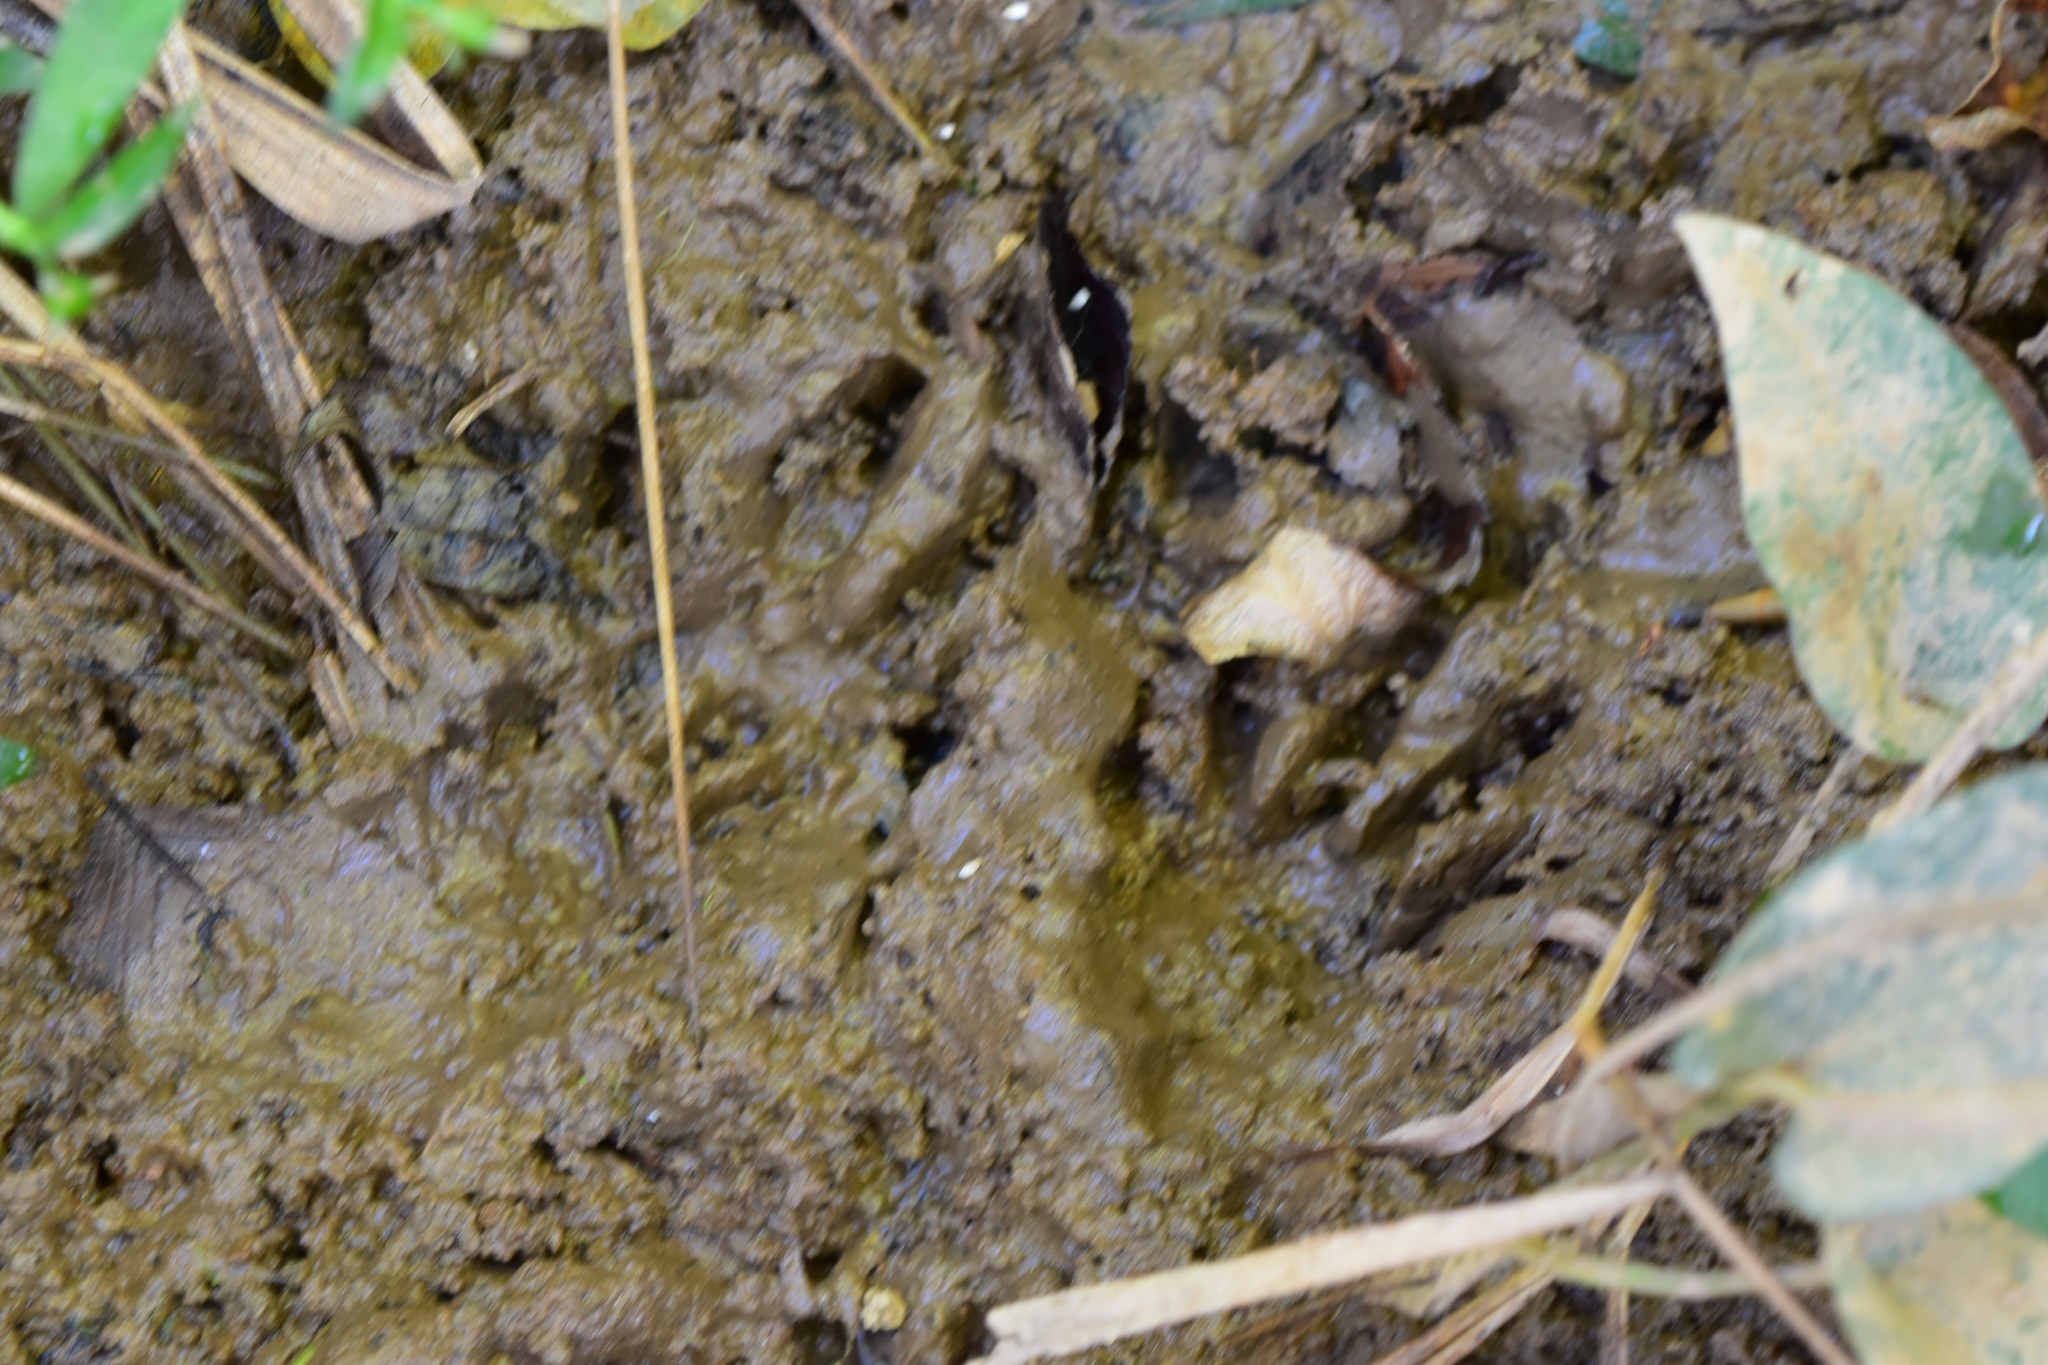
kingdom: Animalia
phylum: Chordata
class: Mammalia
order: Carnivora
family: Procyonidae
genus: Procyon
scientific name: Procyon lotor
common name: Raccoon
